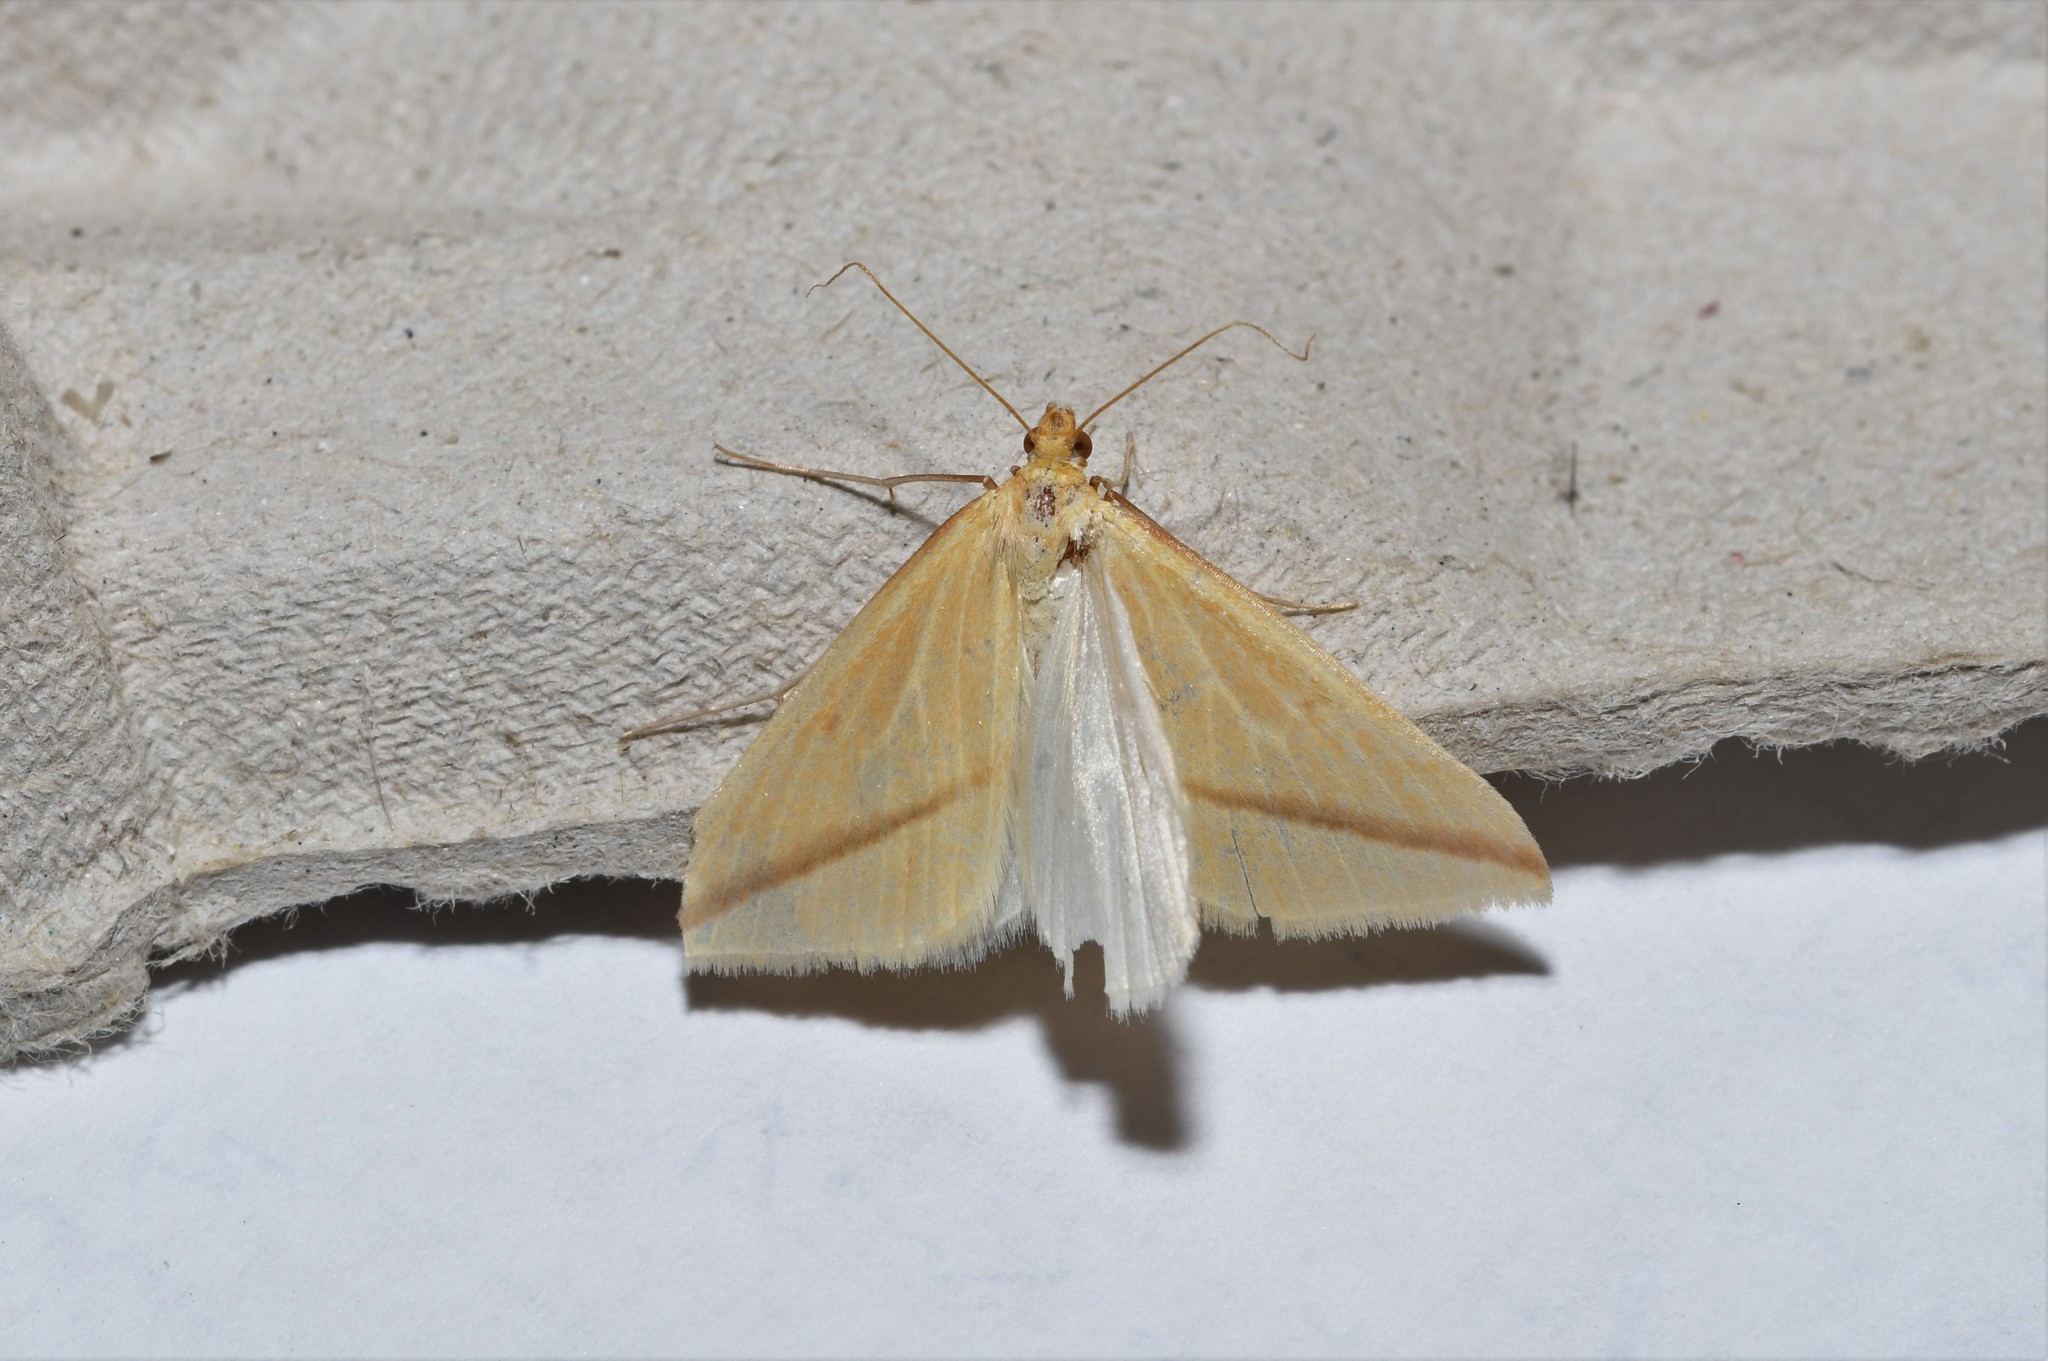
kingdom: Animalia
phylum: Arthropoda
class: Insecta
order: Lepidoptera
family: Geometridae
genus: Rhodometra
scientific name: Rhodometra sacraria
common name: Vestal
